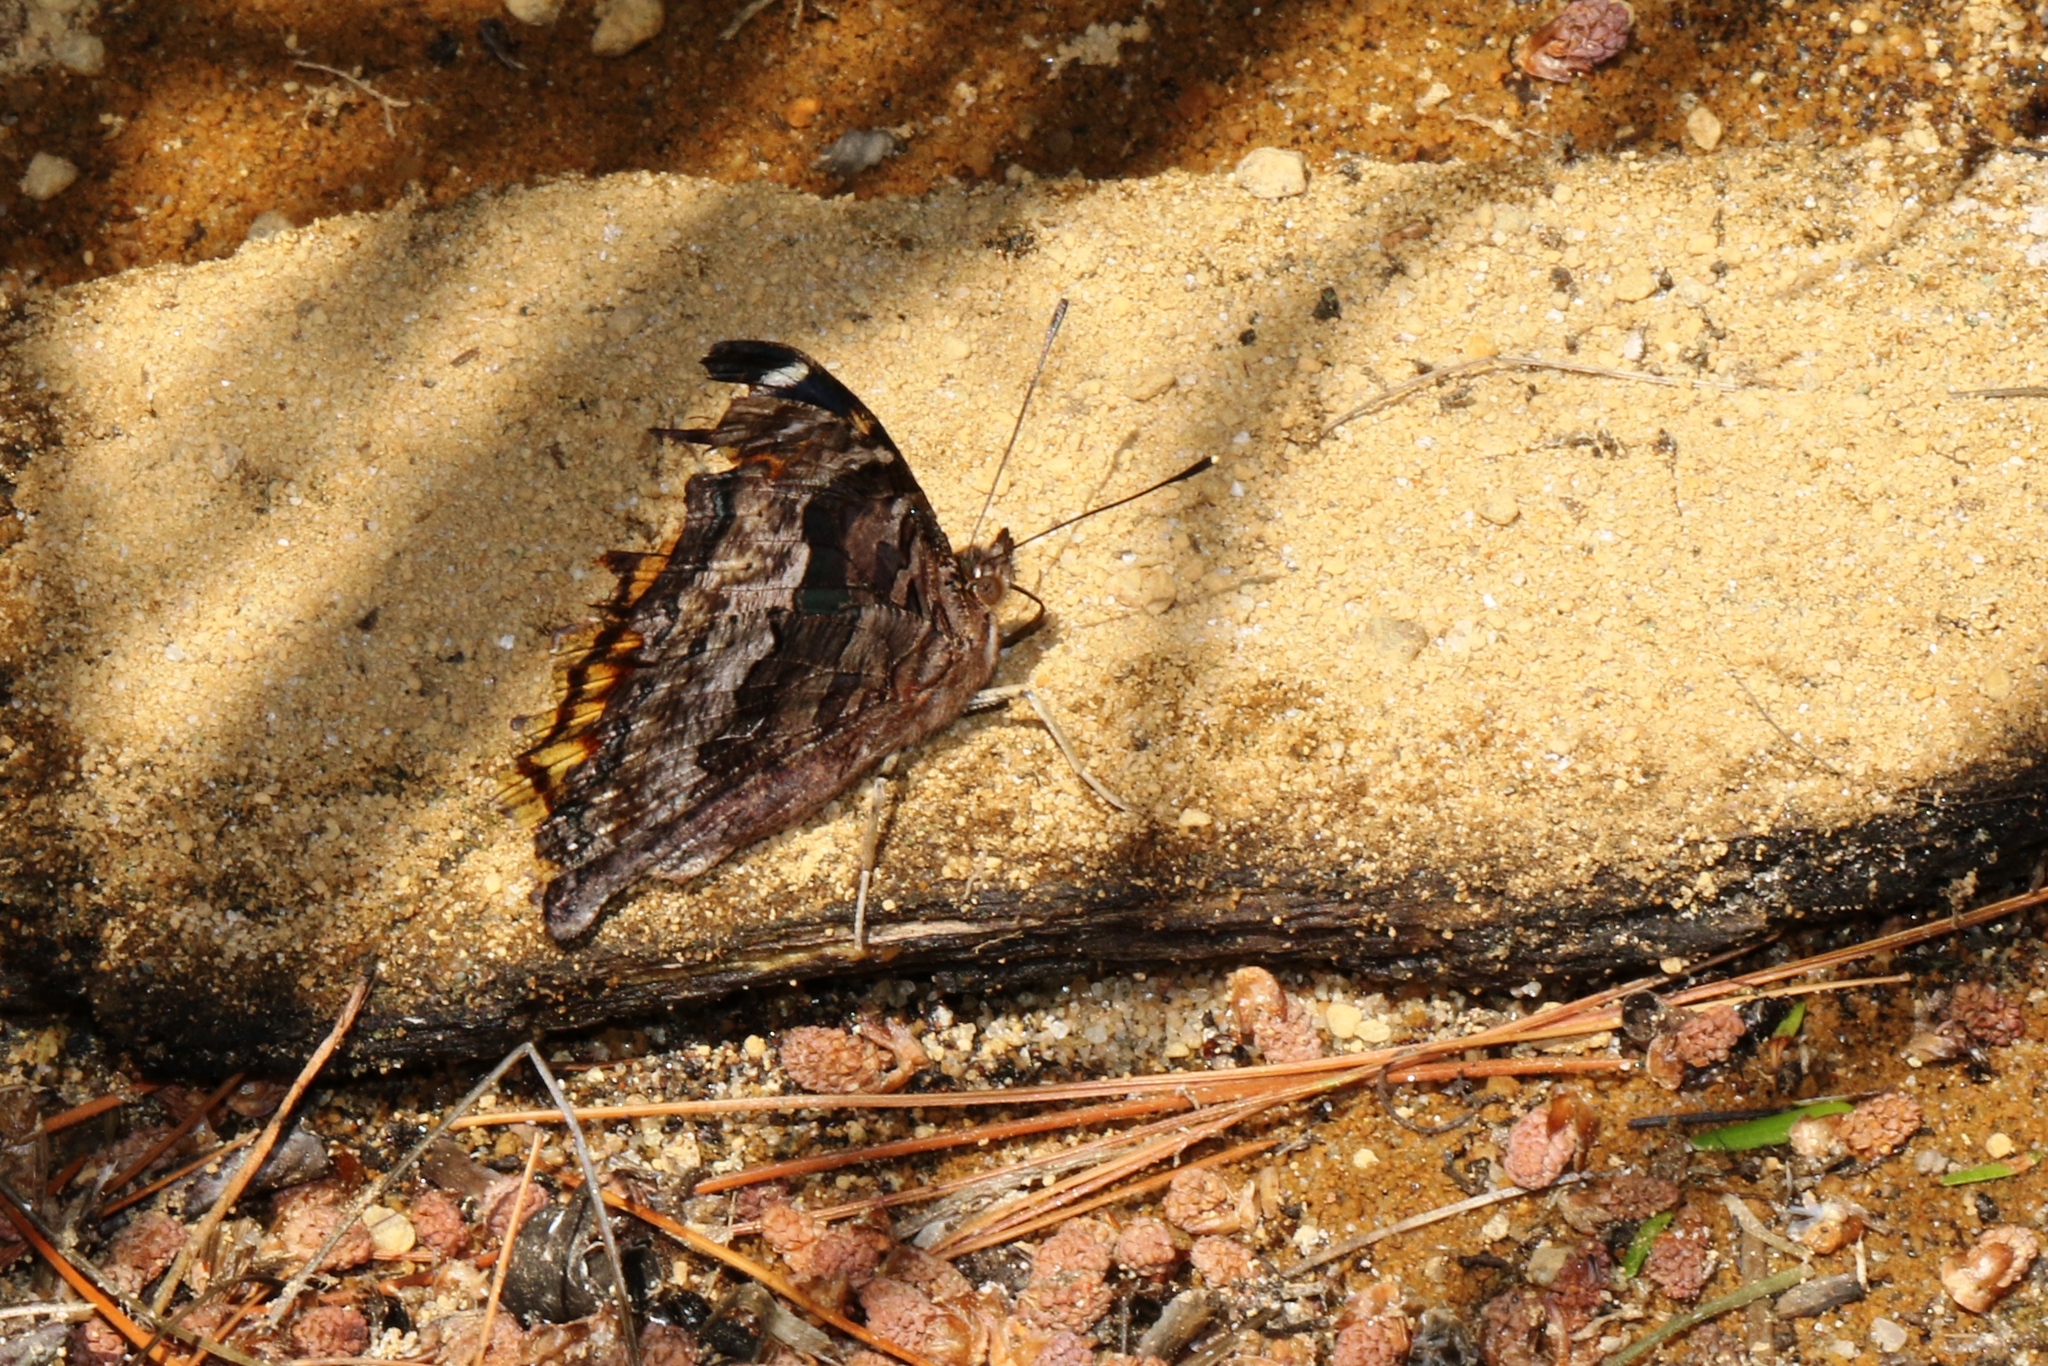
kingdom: Animalia
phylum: Arthropoda
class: Insecta
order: Lepidoptera
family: Nymphalidae
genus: Polygonia
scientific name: Polygonia vaualbum
